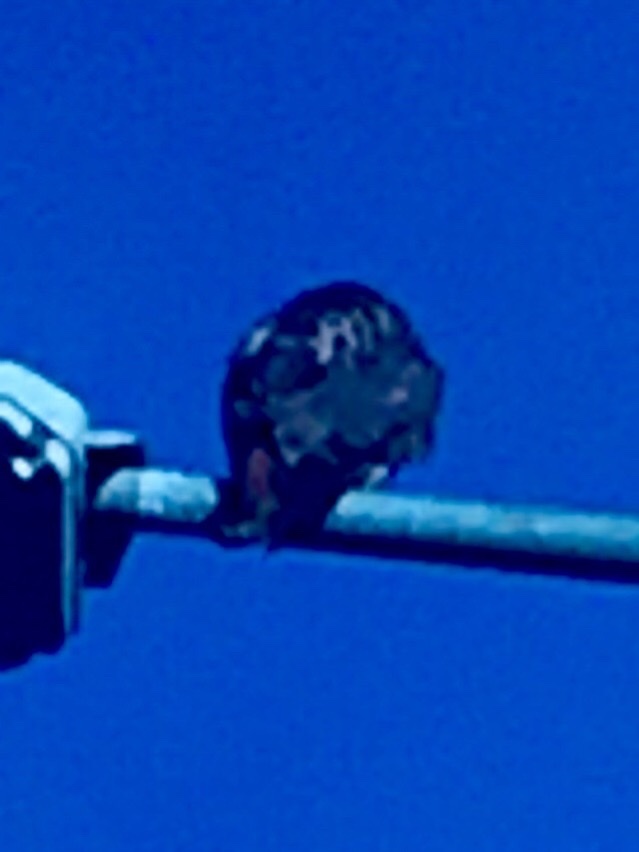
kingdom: Animalia
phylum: Chordata
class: Aves
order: Accipitriformes
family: Accipitridae
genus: Buteo
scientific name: Buteo jamaicensis
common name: Red-tailed hawk
